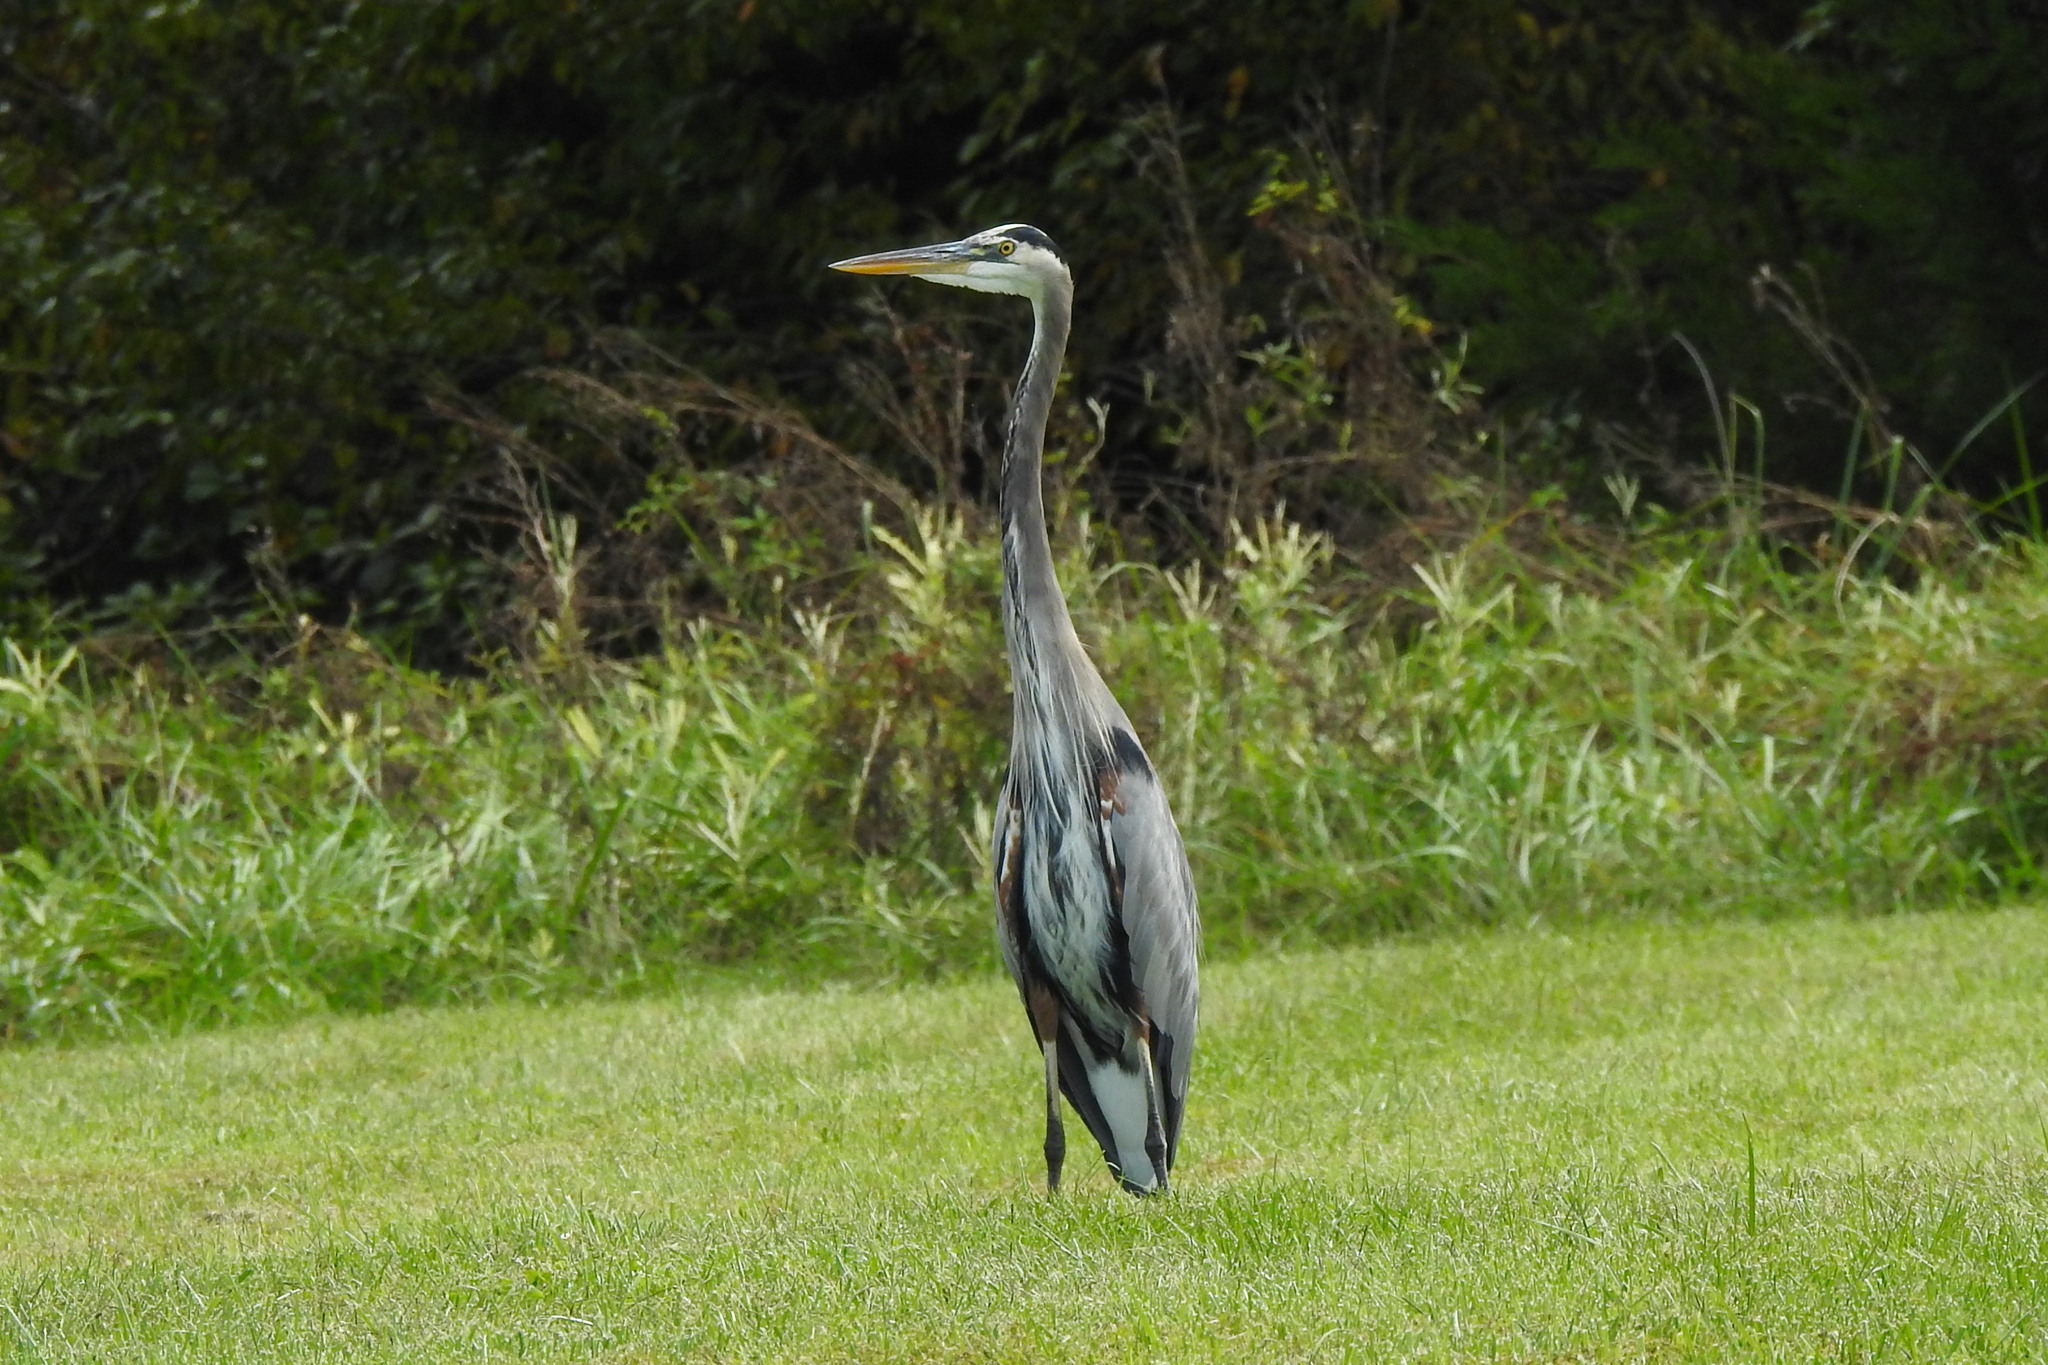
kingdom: Animalia
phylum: Chordata
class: Aves
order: Pelecaniformes
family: Ardeidae
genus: Ardea
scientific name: Ardea herodias
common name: Great blue heron
